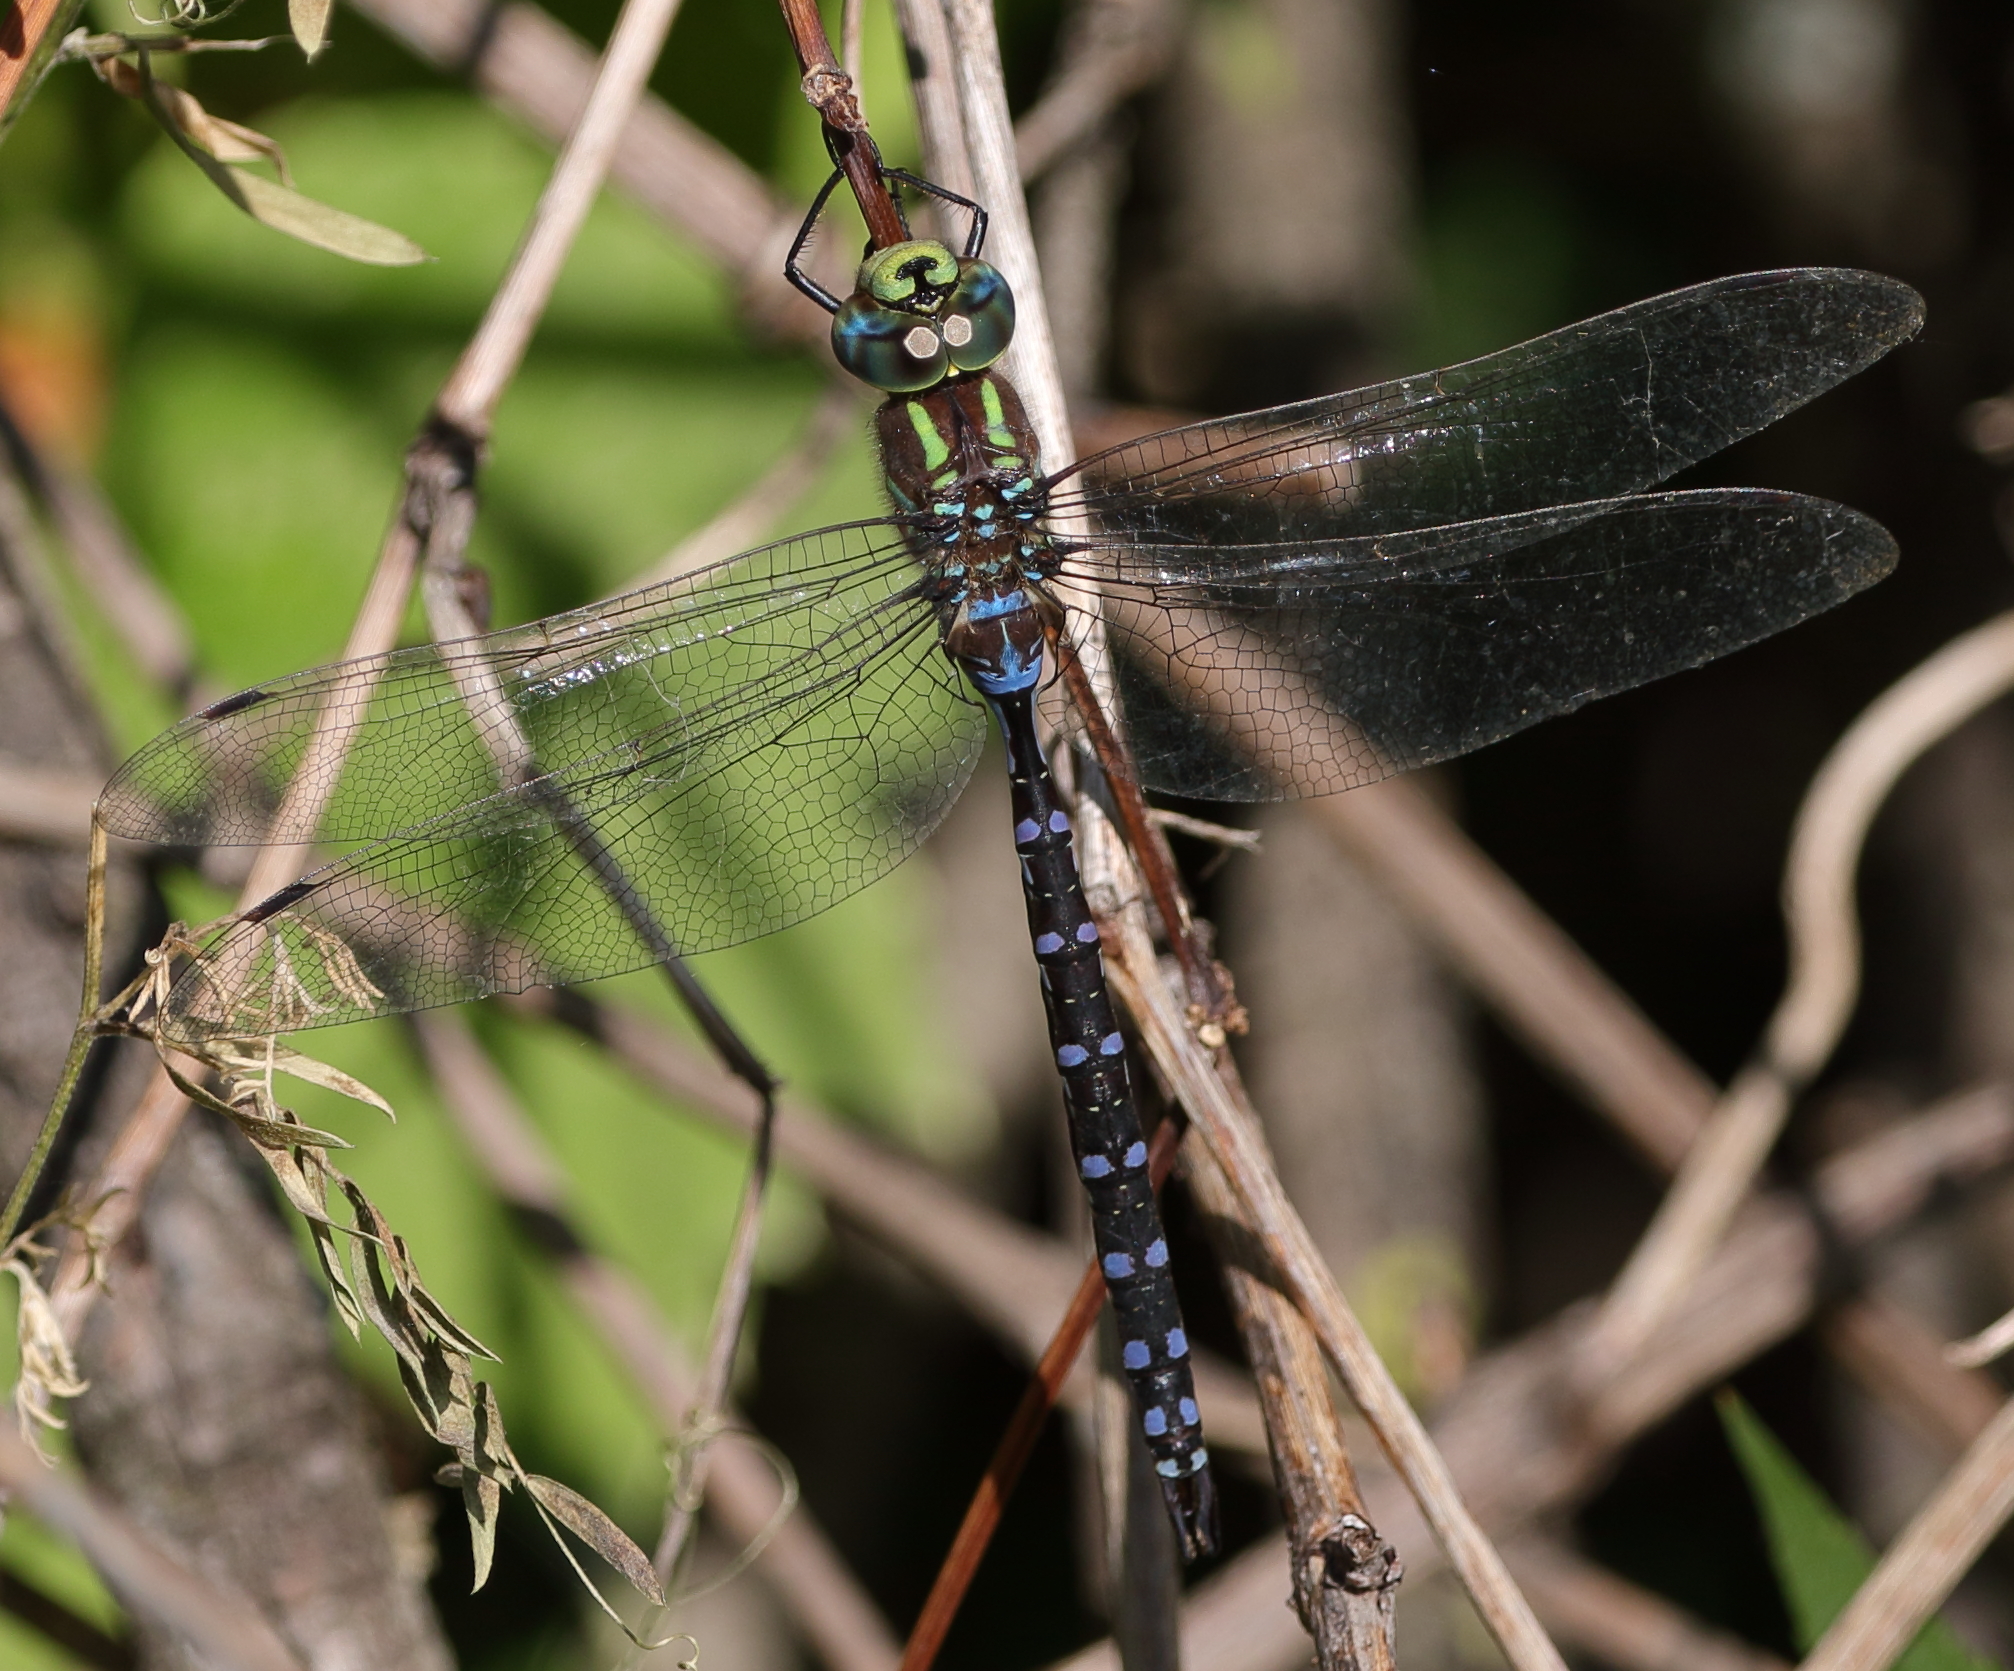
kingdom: Animalia
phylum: Arthropoda
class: Insecta
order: Odonata
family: Aeshnidae
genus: Aeshna
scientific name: Aeshna constricta
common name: Lance-tipped darner
